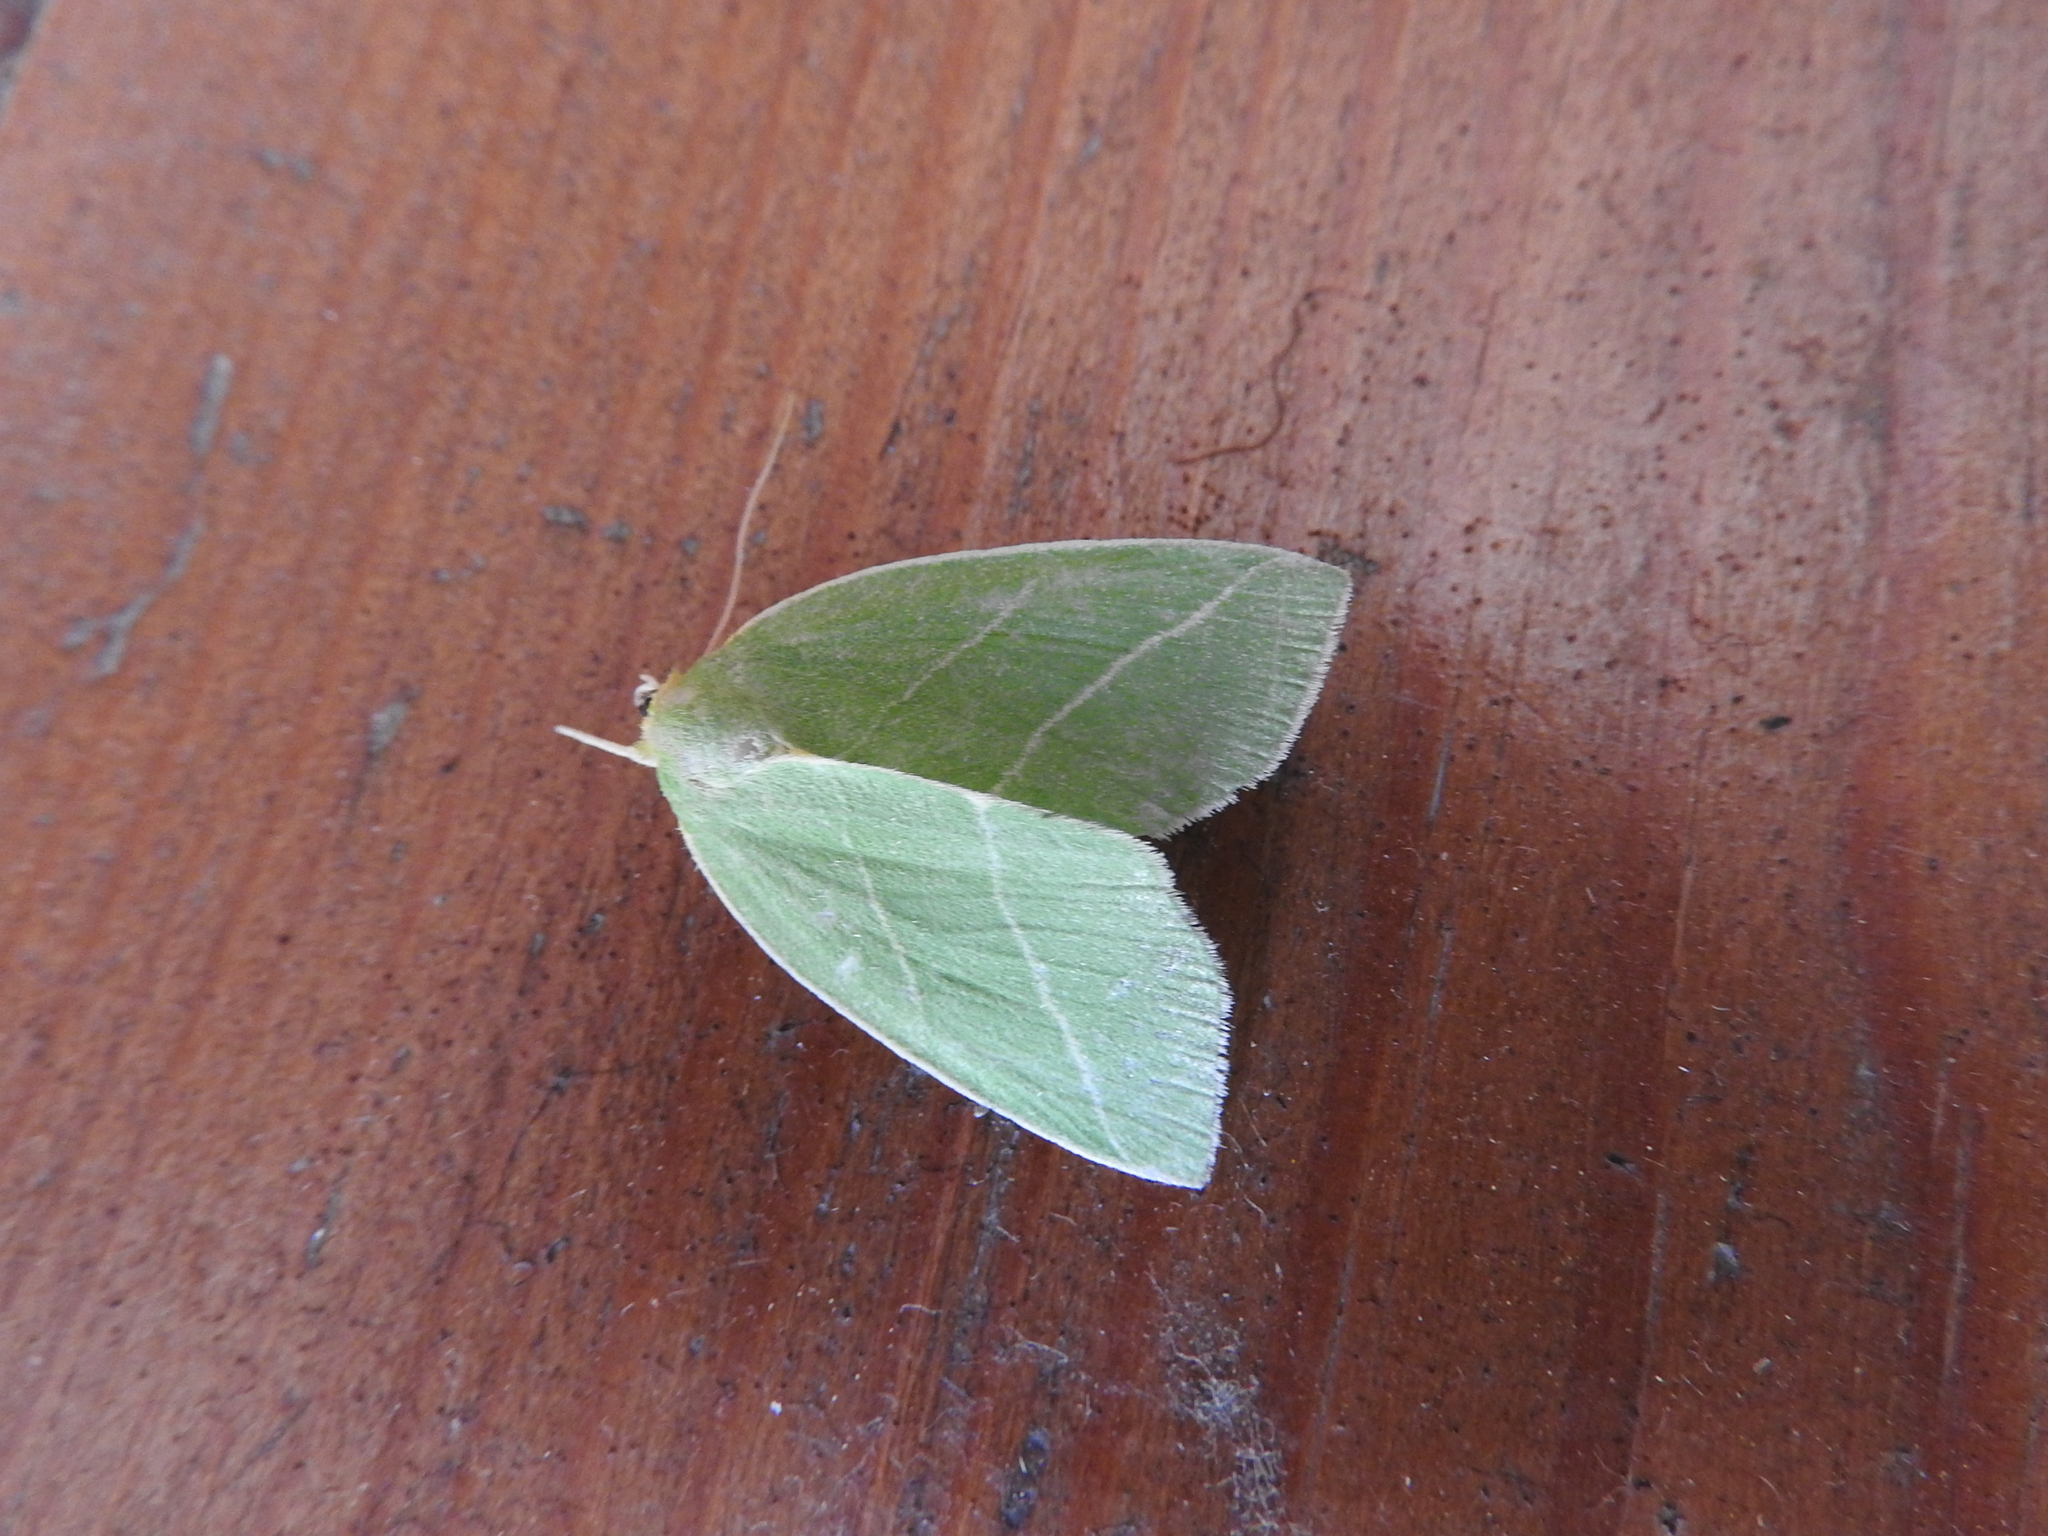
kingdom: Animalia
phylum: Arthropoda
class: Insecta
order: Lepidoptera
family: Nolidae
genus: Bena
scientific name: Bena bicolorana
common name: Scarce silver-lines
